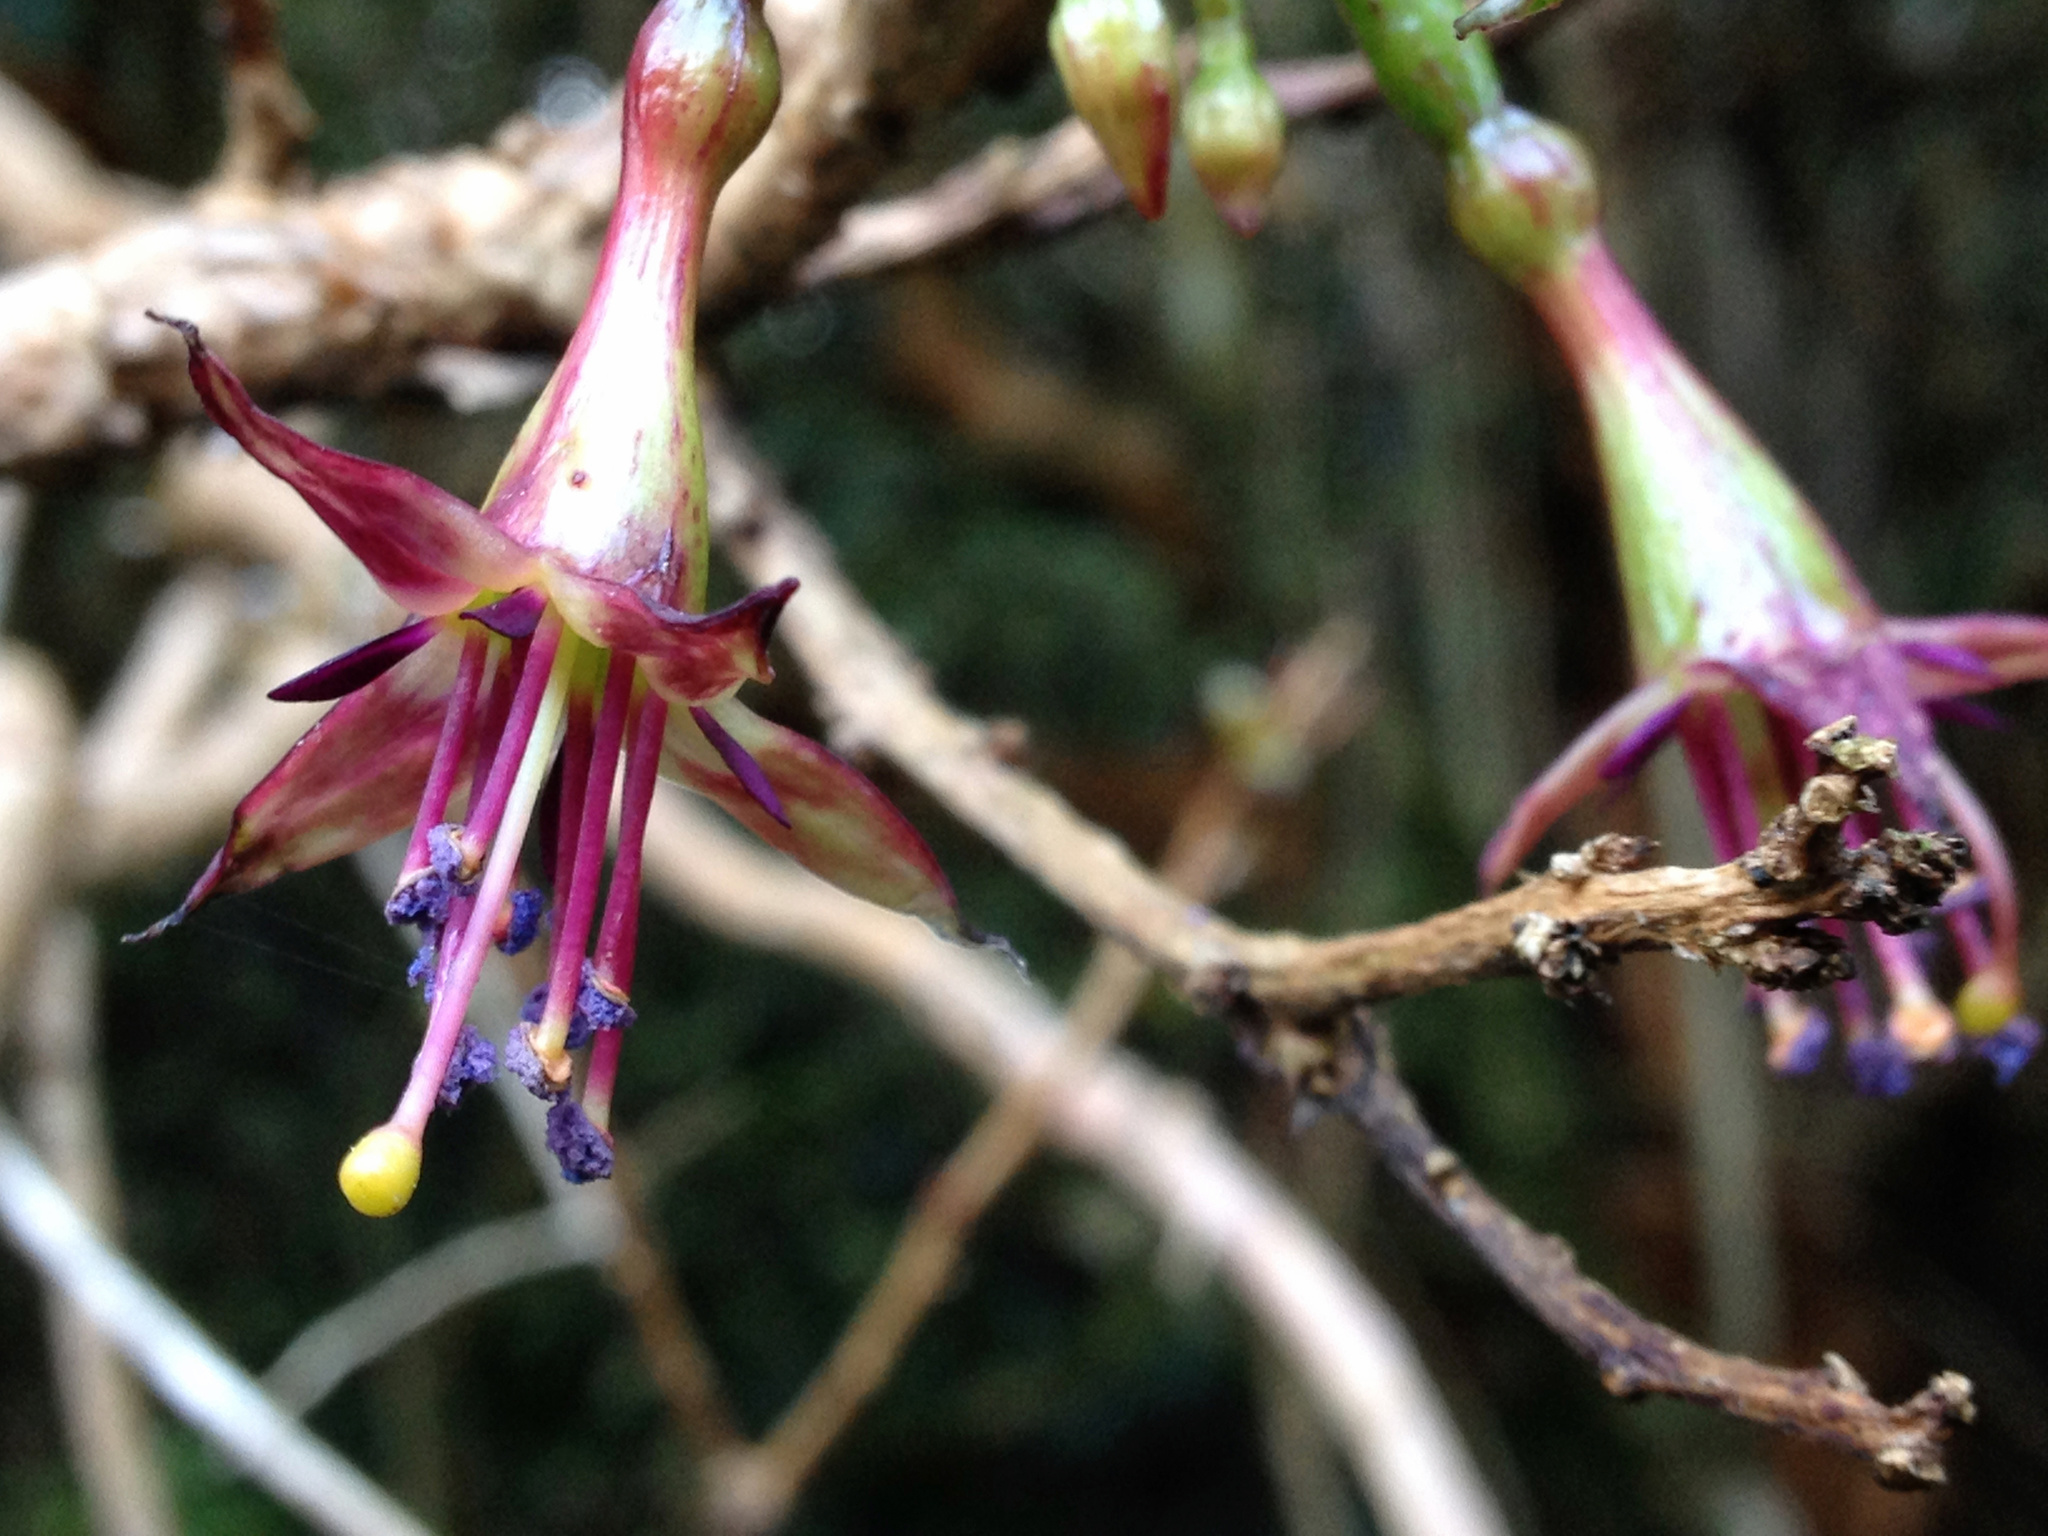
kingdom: Plantae
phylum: Tracheophyta
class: Magnoliopsida
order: Myrtales
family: Onagraceae
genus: Fuchsia
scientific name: Fuchsia excorticata
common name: Tree fuchsia
